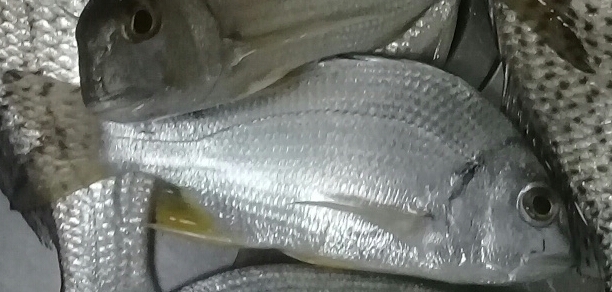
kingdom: Animalia
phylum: Chordata
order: Perciformes
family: Sparidae
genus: Acanthopagrus
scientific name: Acanthopagrus arabicus
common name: Arabian yellowfin seabream
